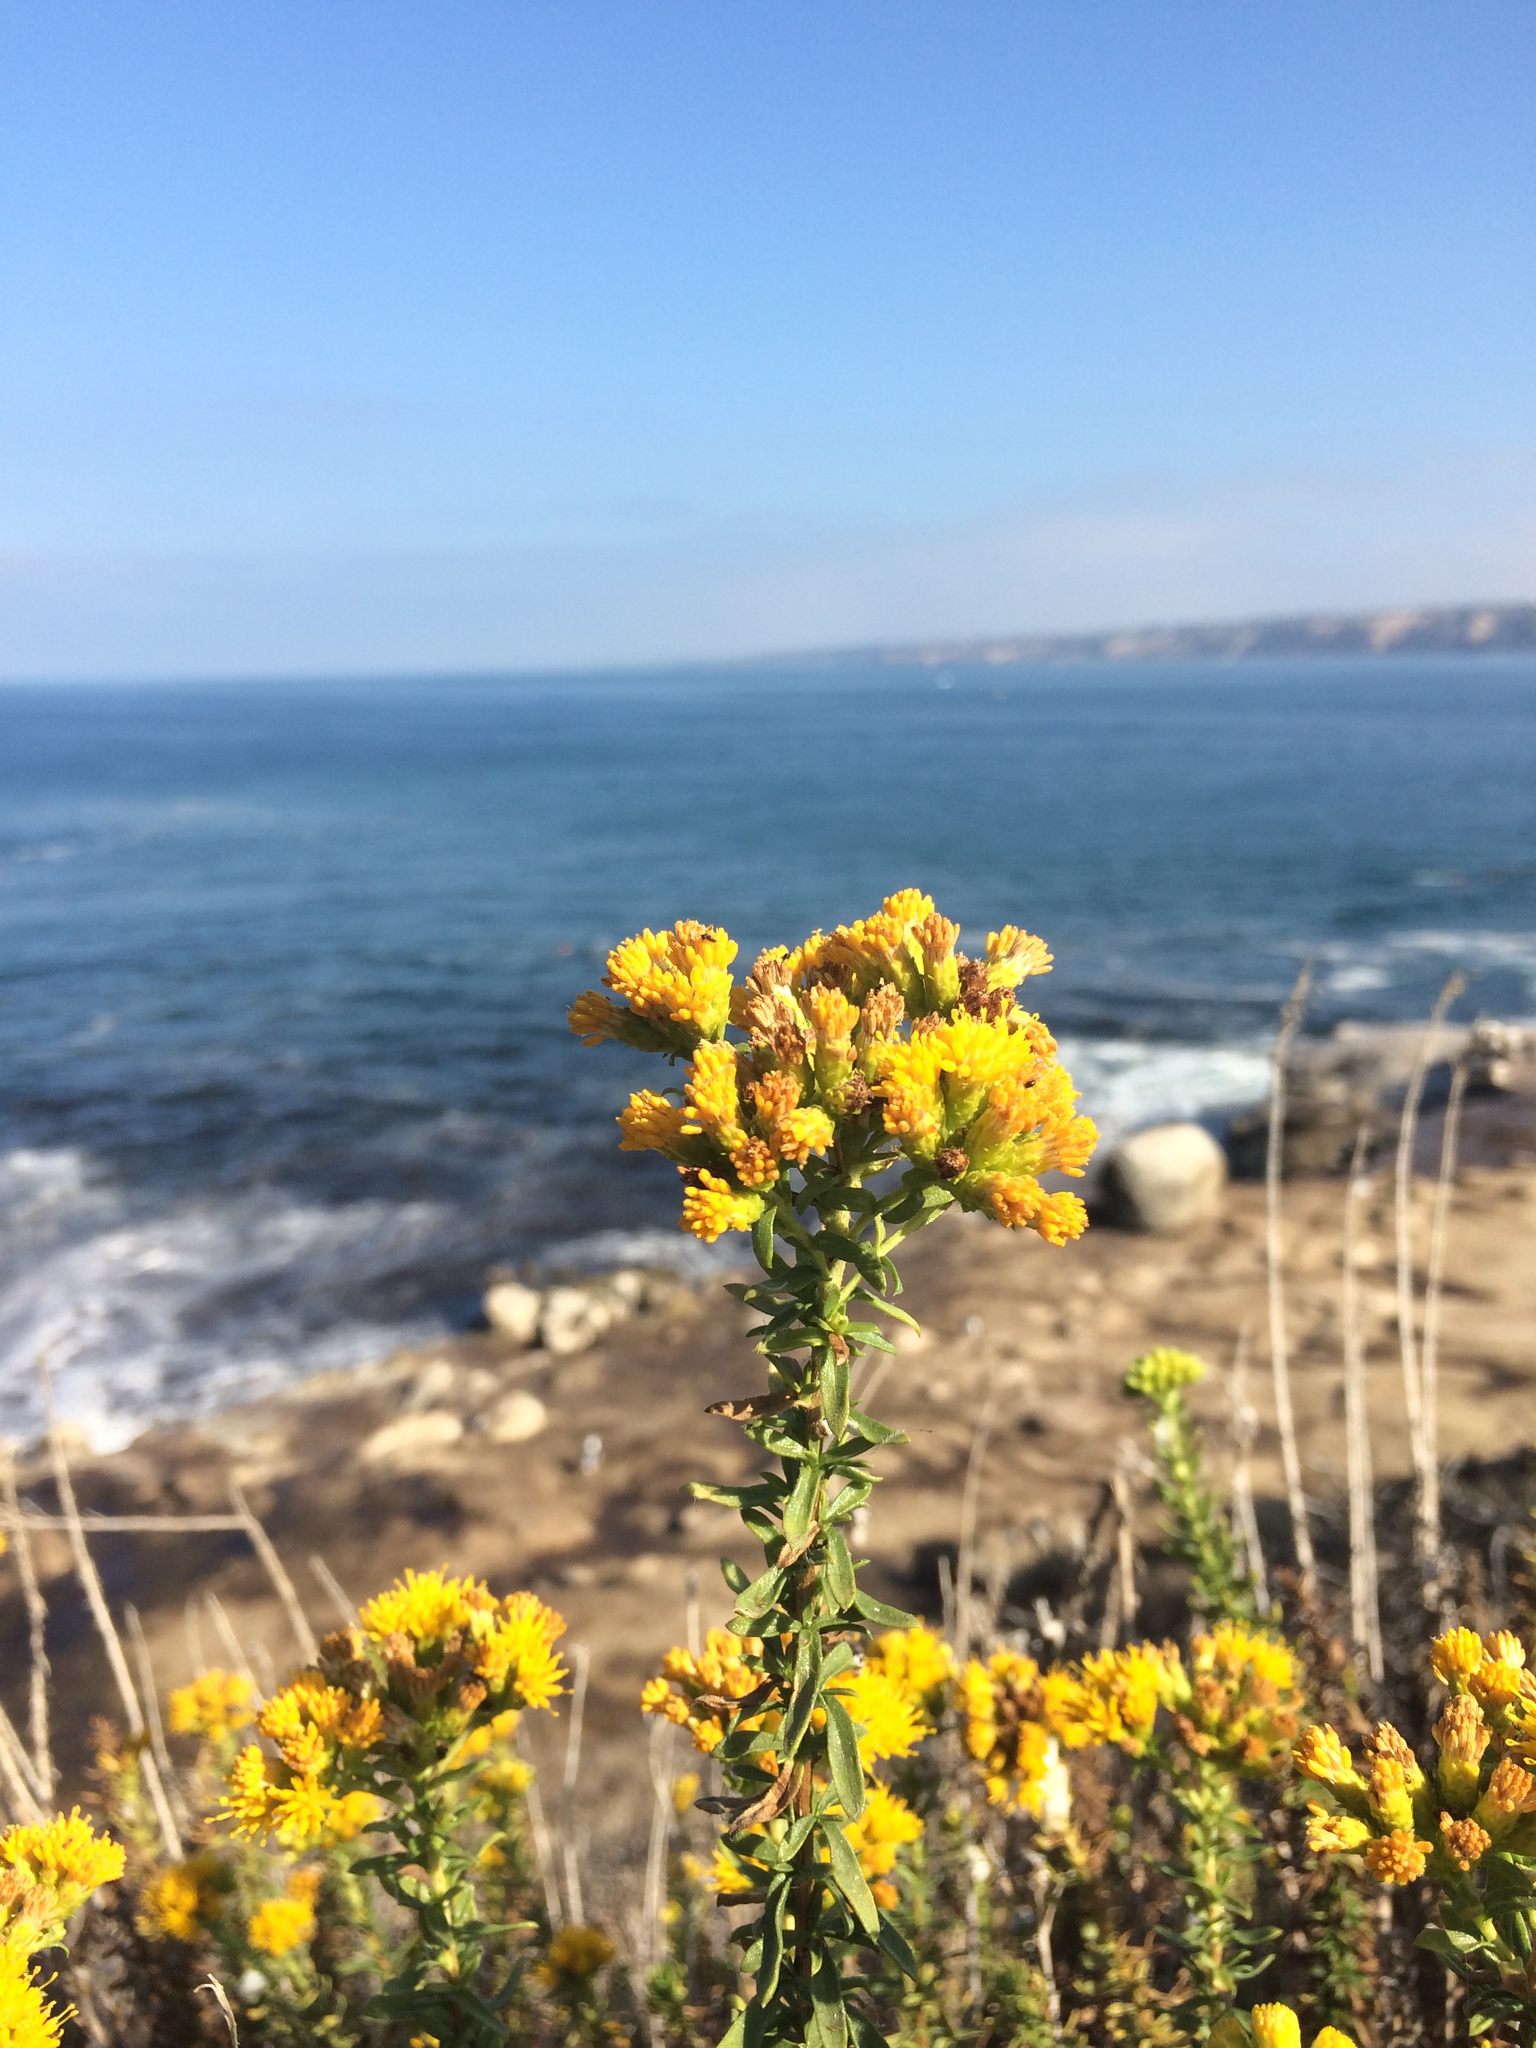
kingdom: Plantae
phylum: Tracheophyta
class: Magnoliopsida
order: Asterales
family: Asteraceae
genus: Isocoma
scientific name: Isocoma menziesii
